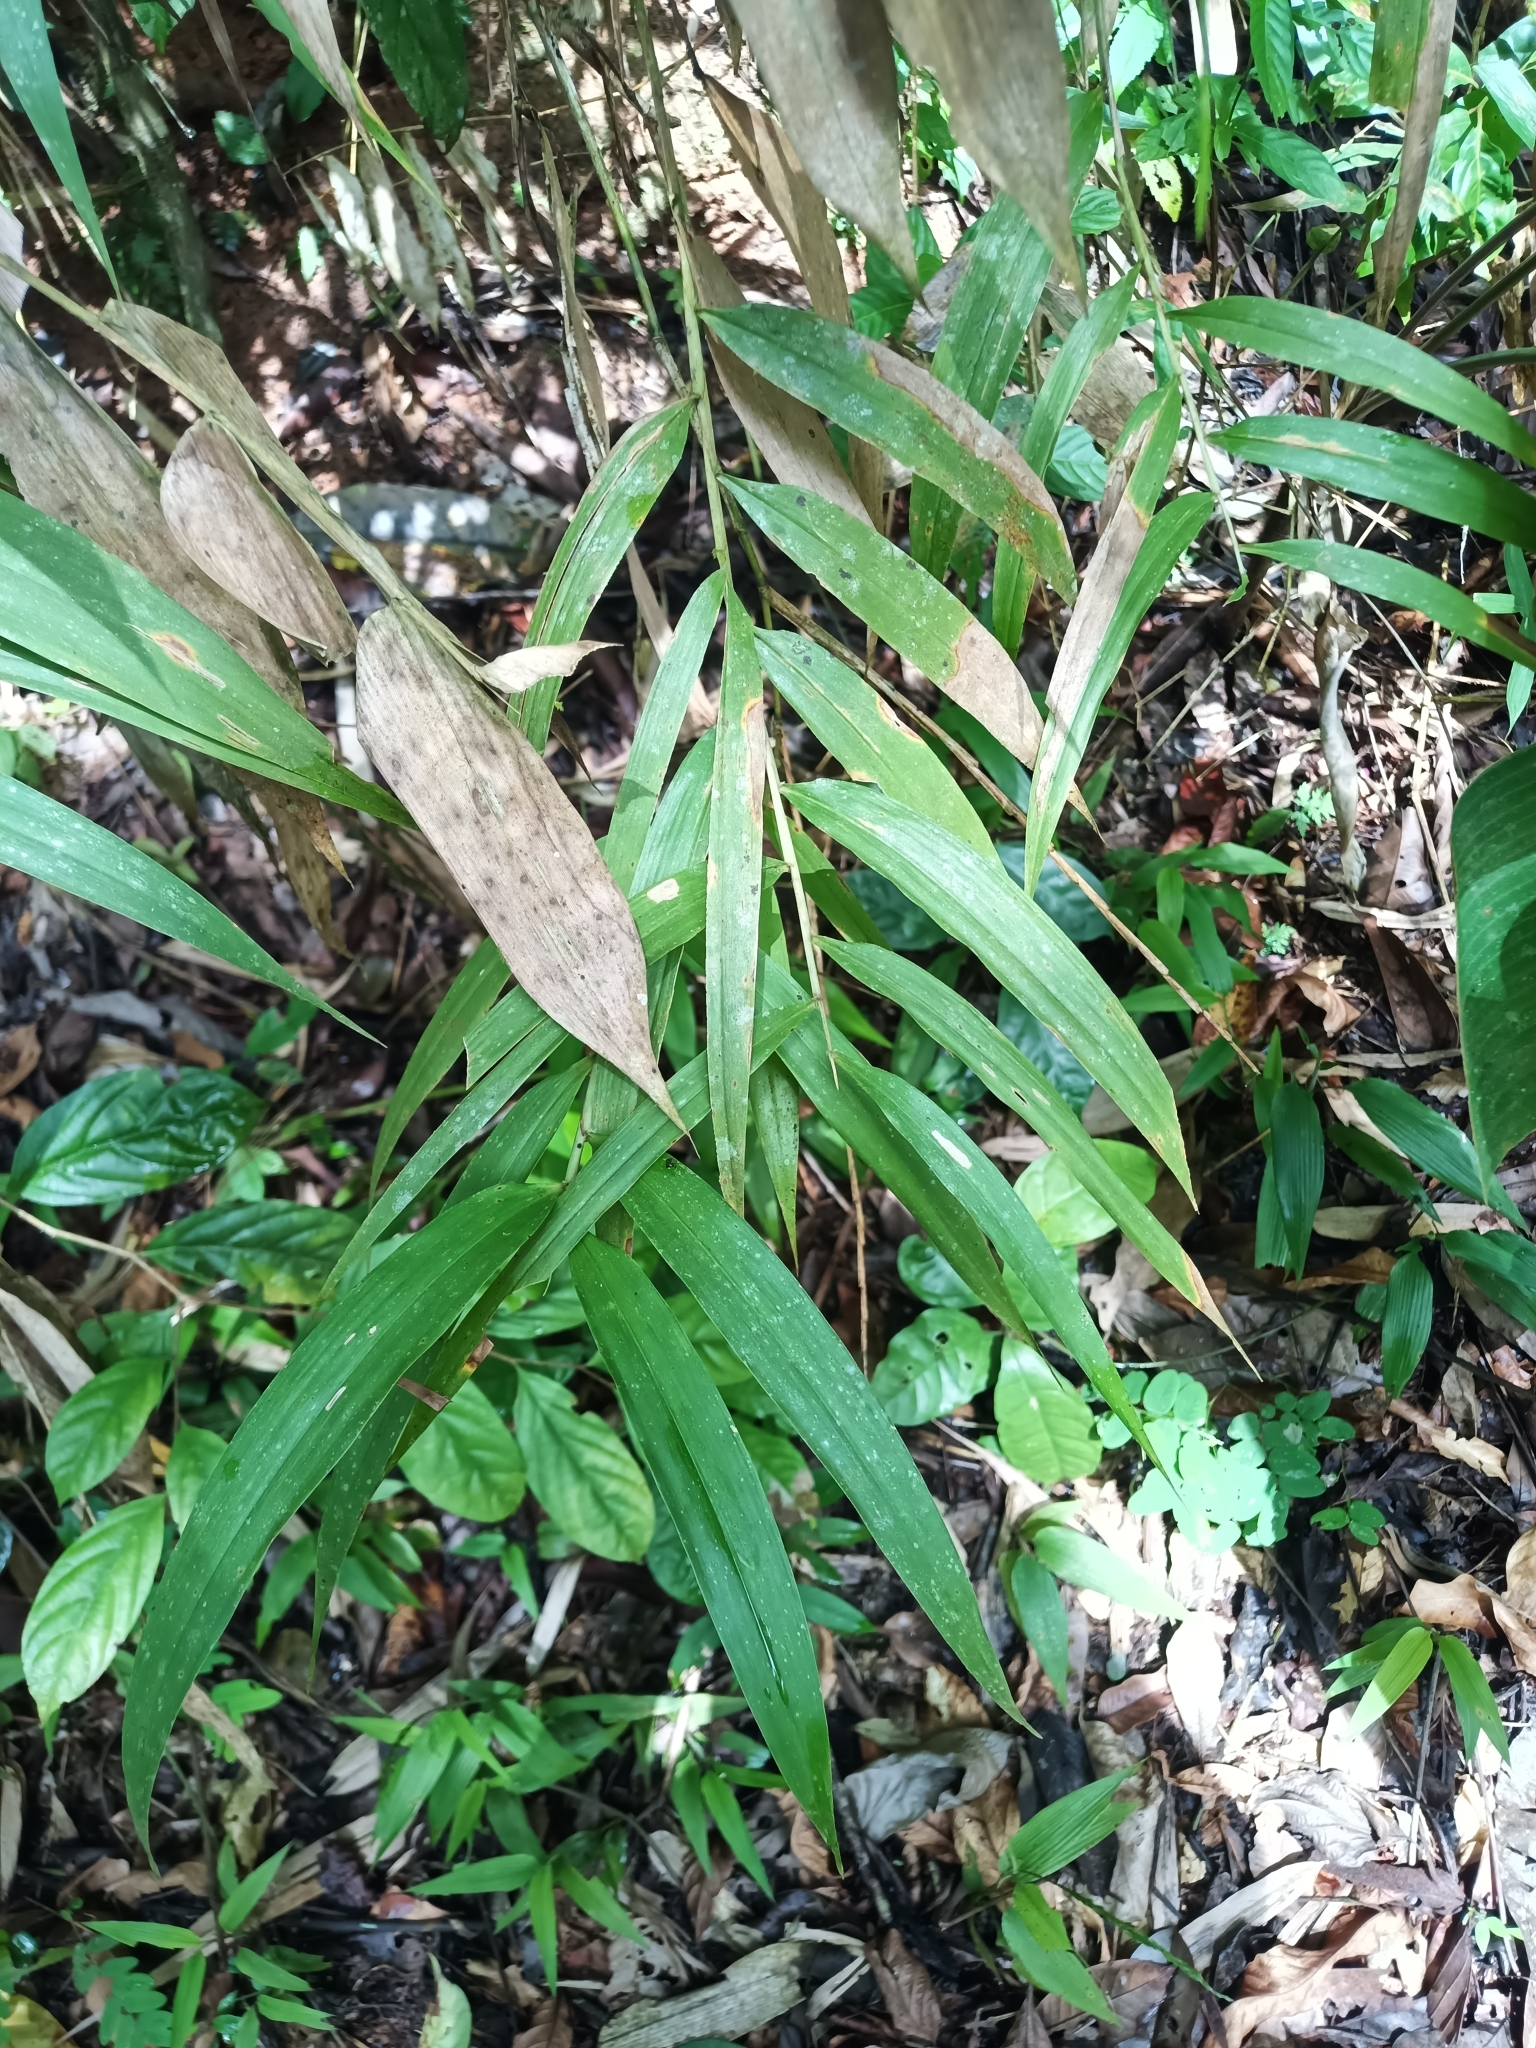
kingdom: Plantae
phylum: Tracheophyta
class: Liliopsida
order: Poales
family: Poaceae
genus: Ichnanthus
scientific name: Ichnanthus breviscrobs
